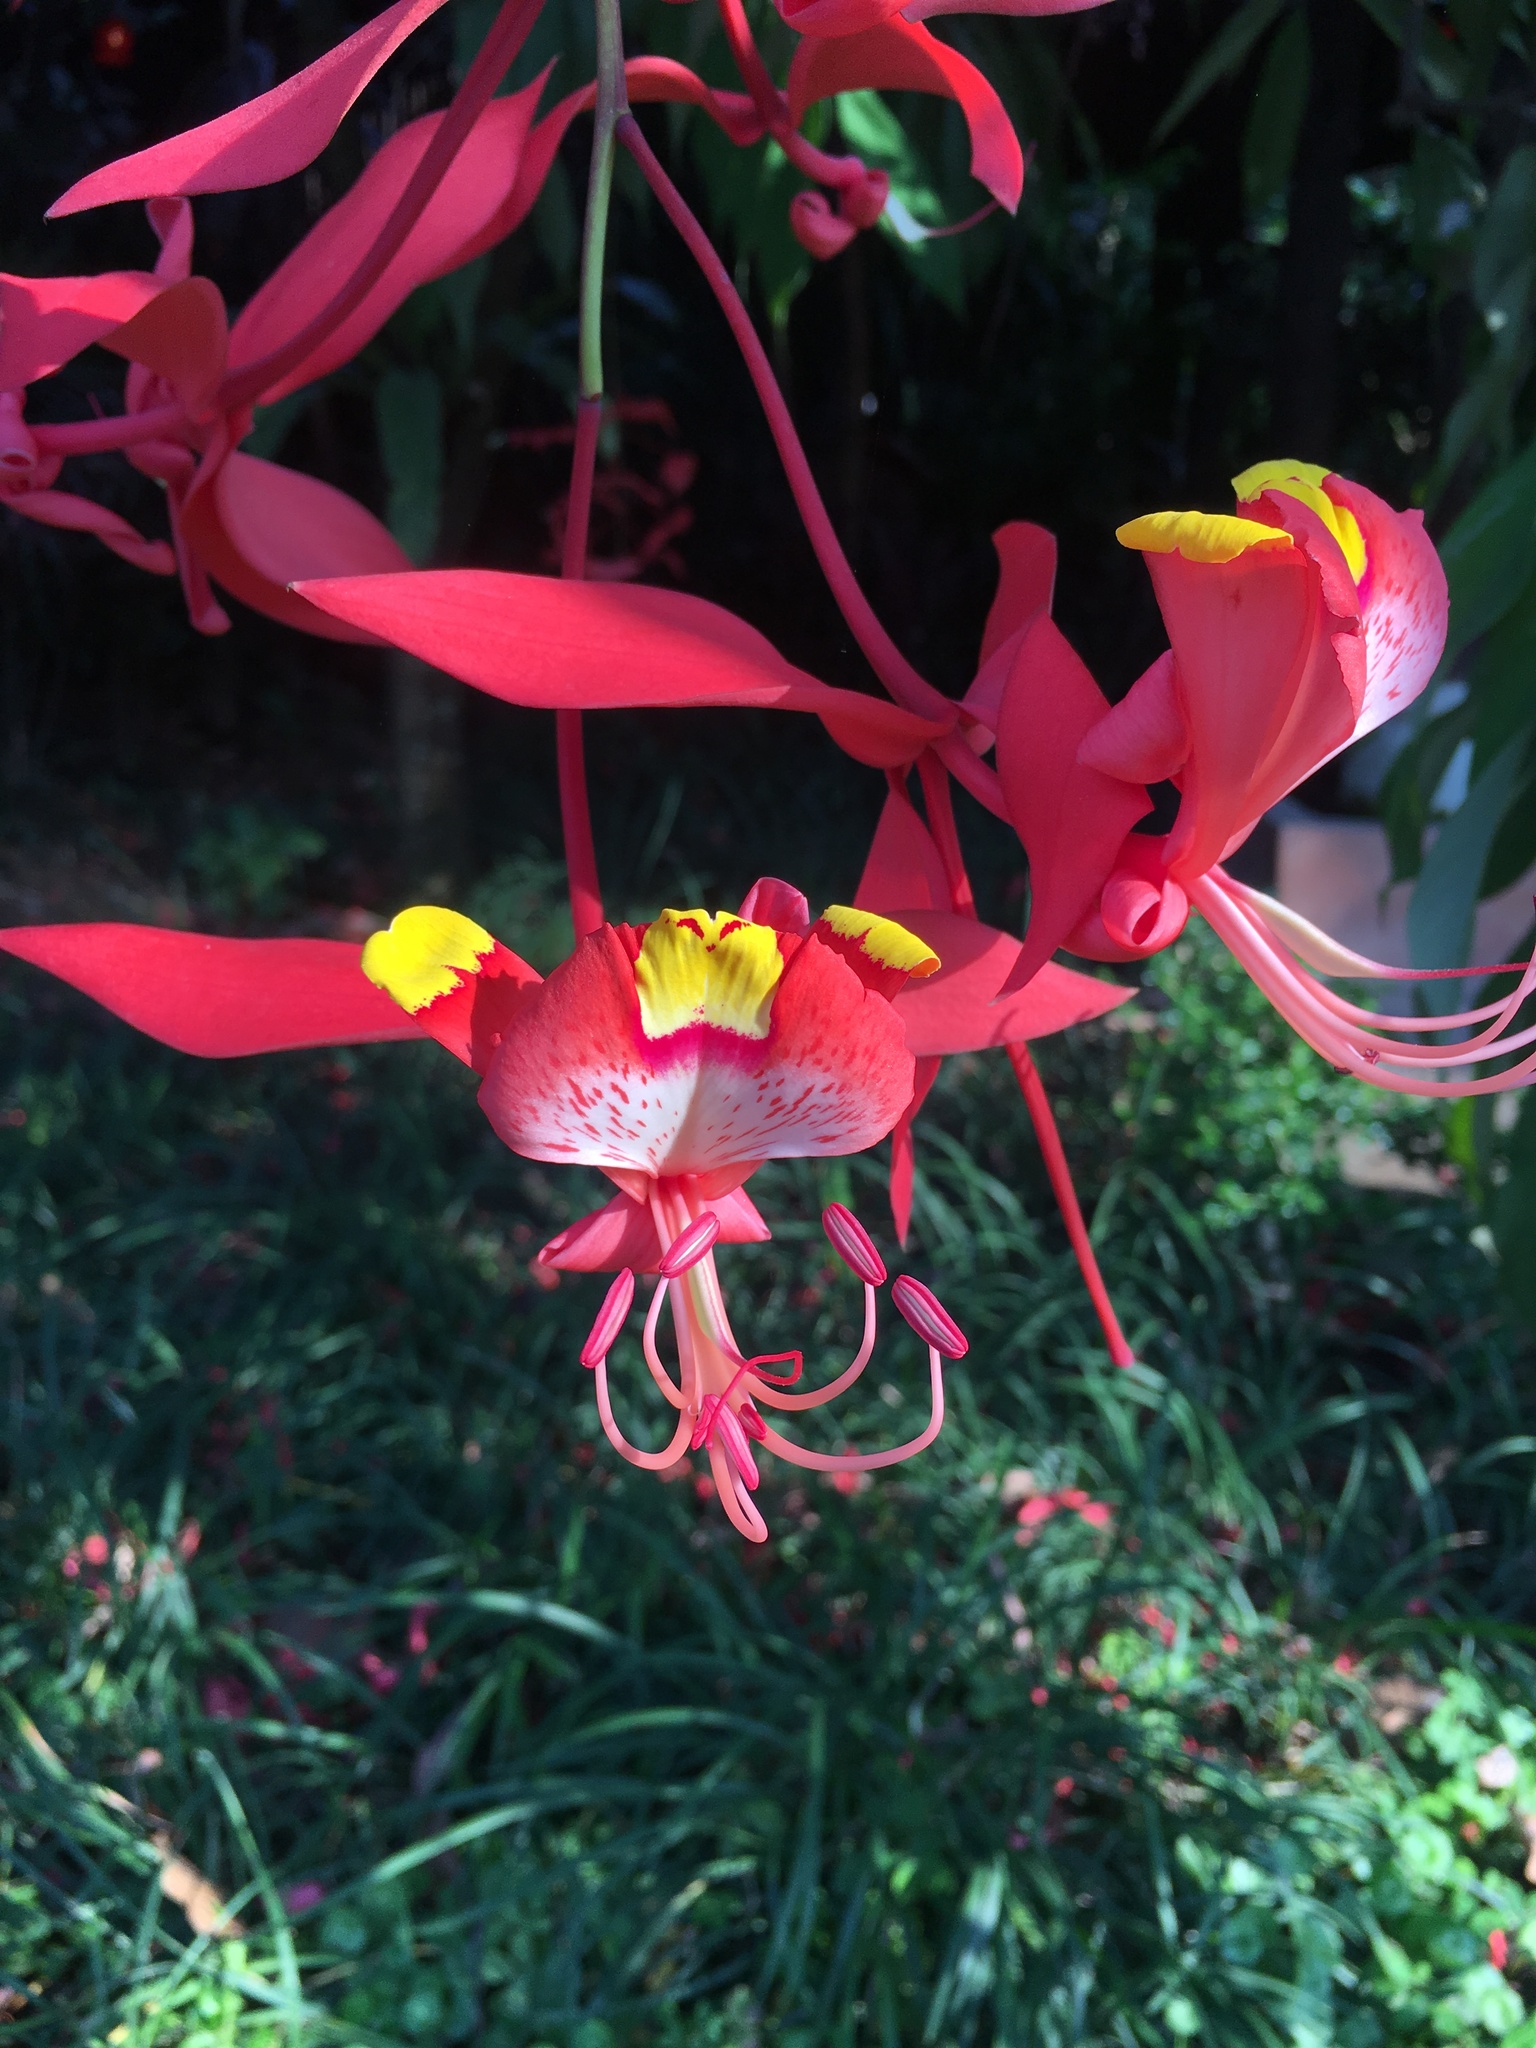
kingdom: Plantae
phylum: Tracheophyta
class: Magnoliopsida
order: Fabales
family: Fabaceae
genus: Amherstia
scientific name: Amherstia nobilis
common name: Pride-of-burma
